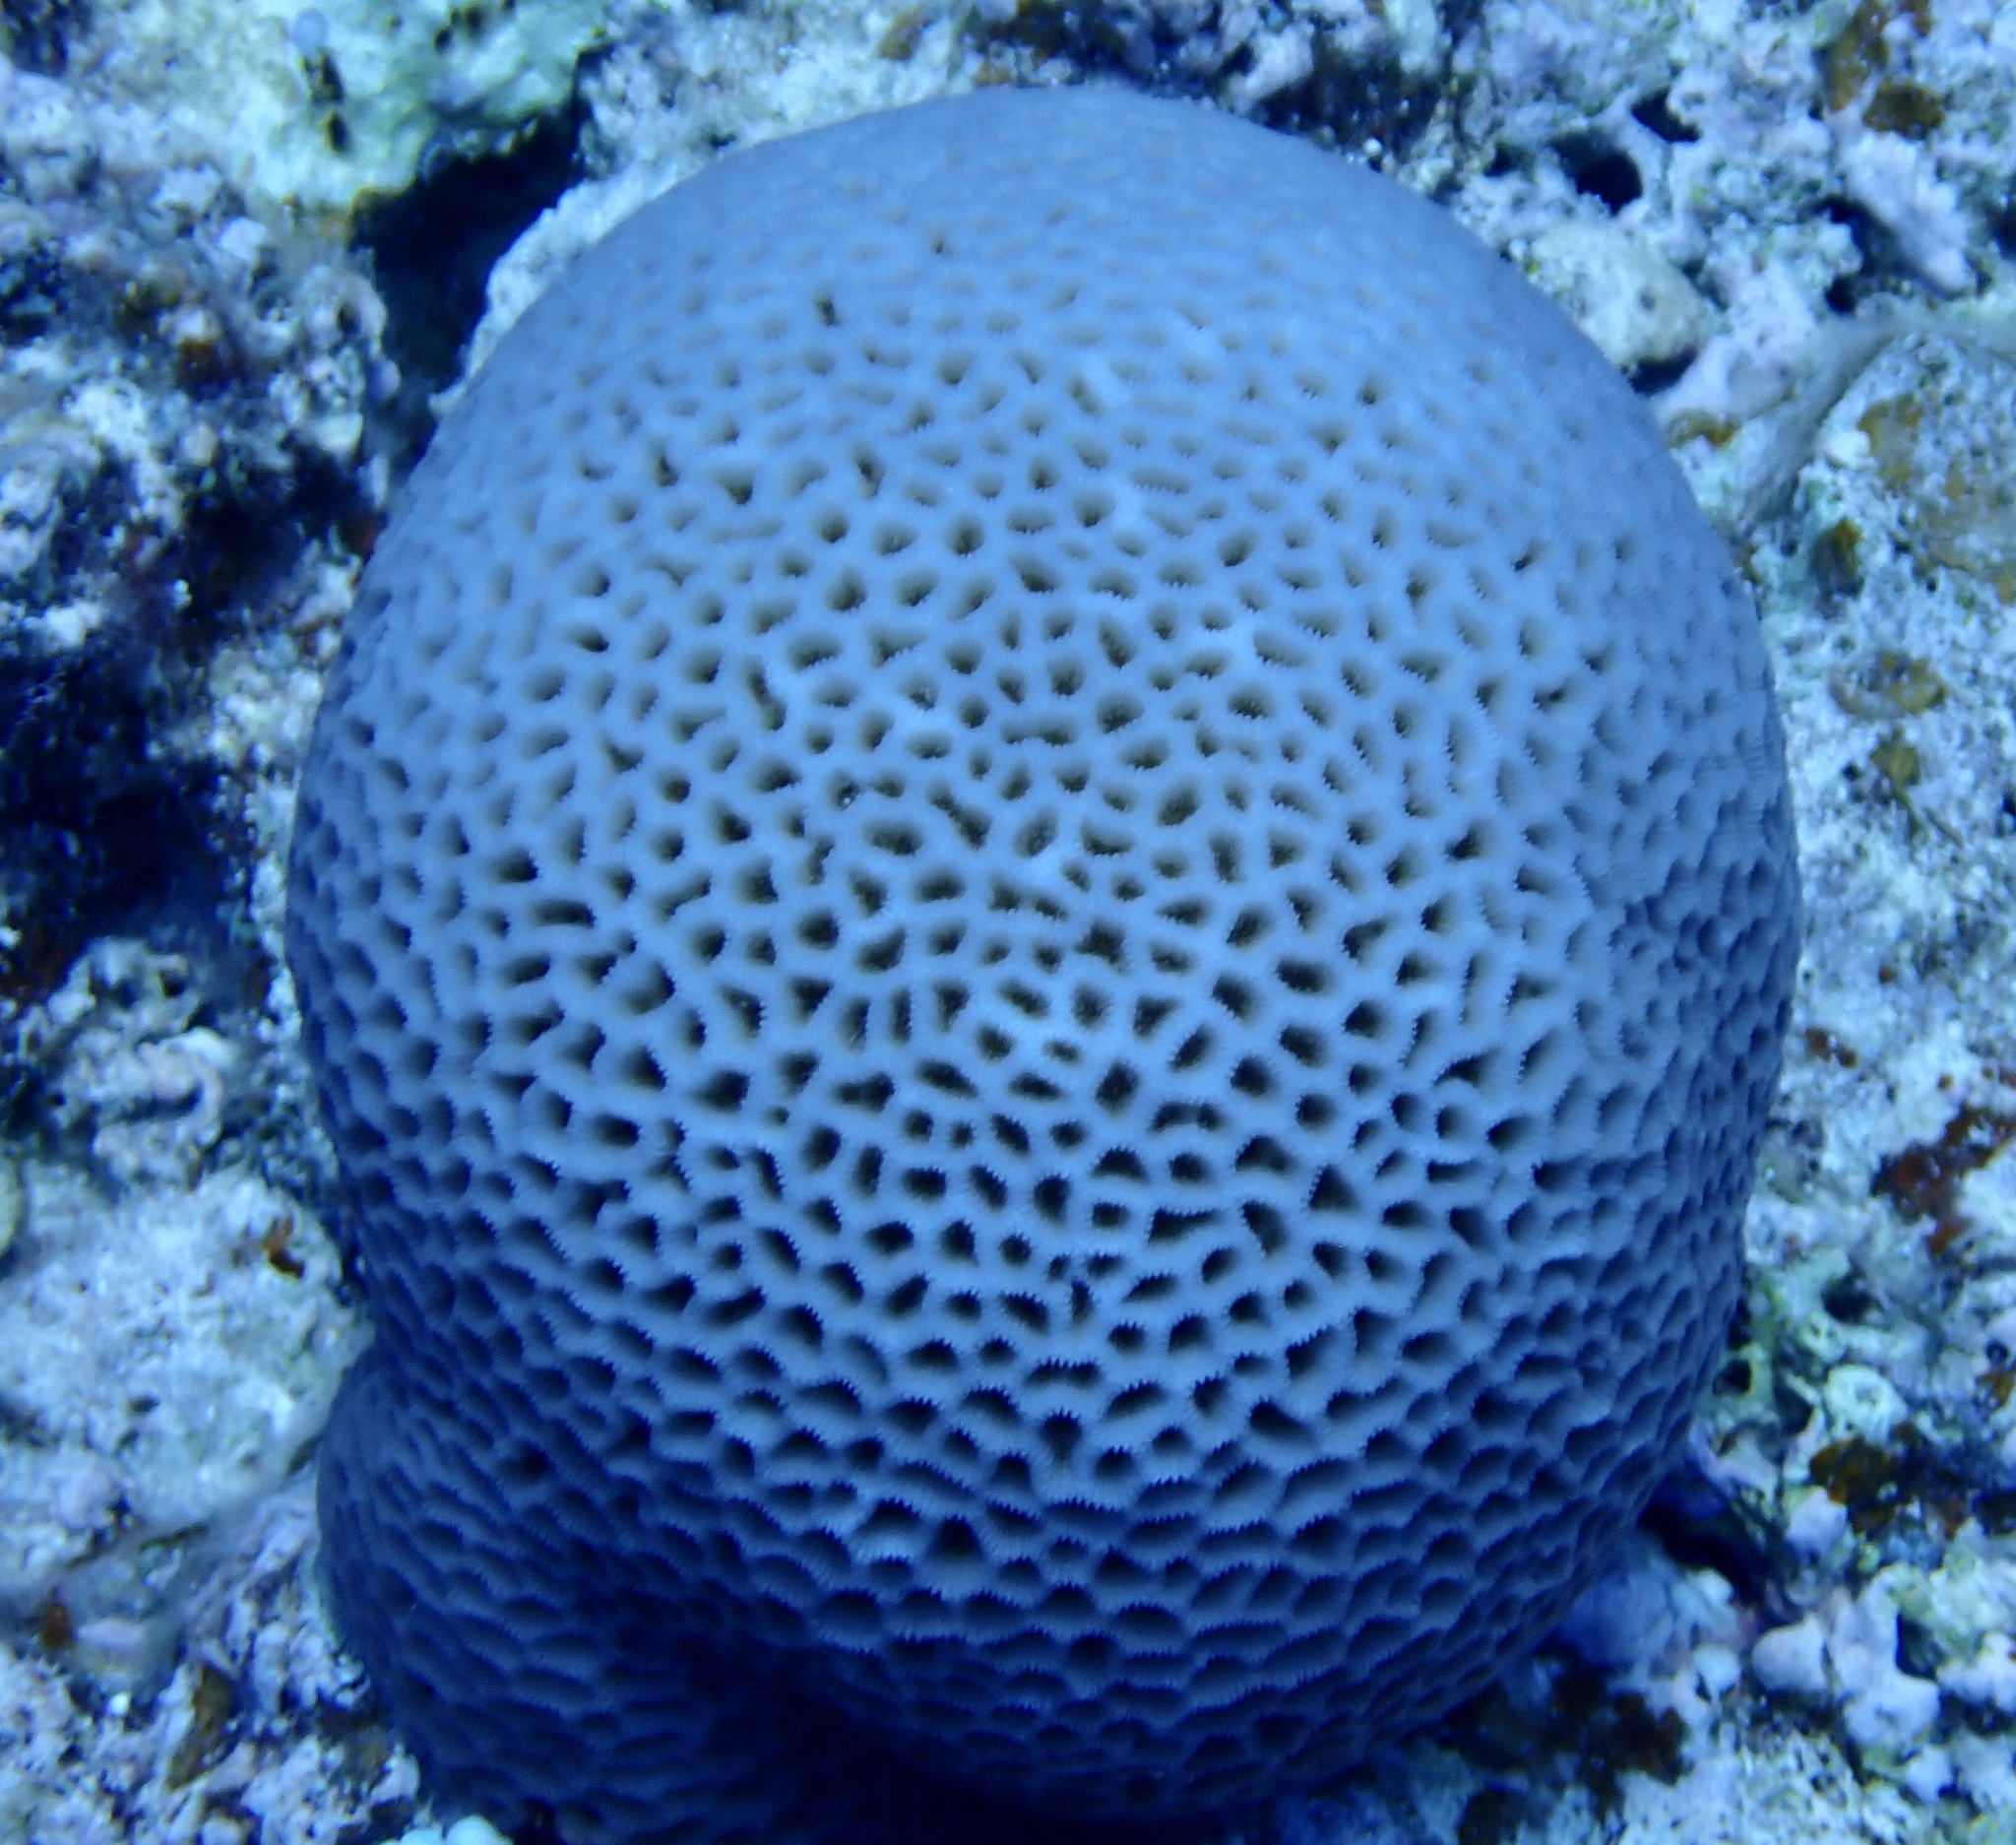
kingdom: Animalia
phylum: Cnidaria
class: Anthozoa
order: Scleractinia
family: Merulinidae
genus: Goniastrea
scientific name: Goniastrea pectinata
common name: Lesser star coral
